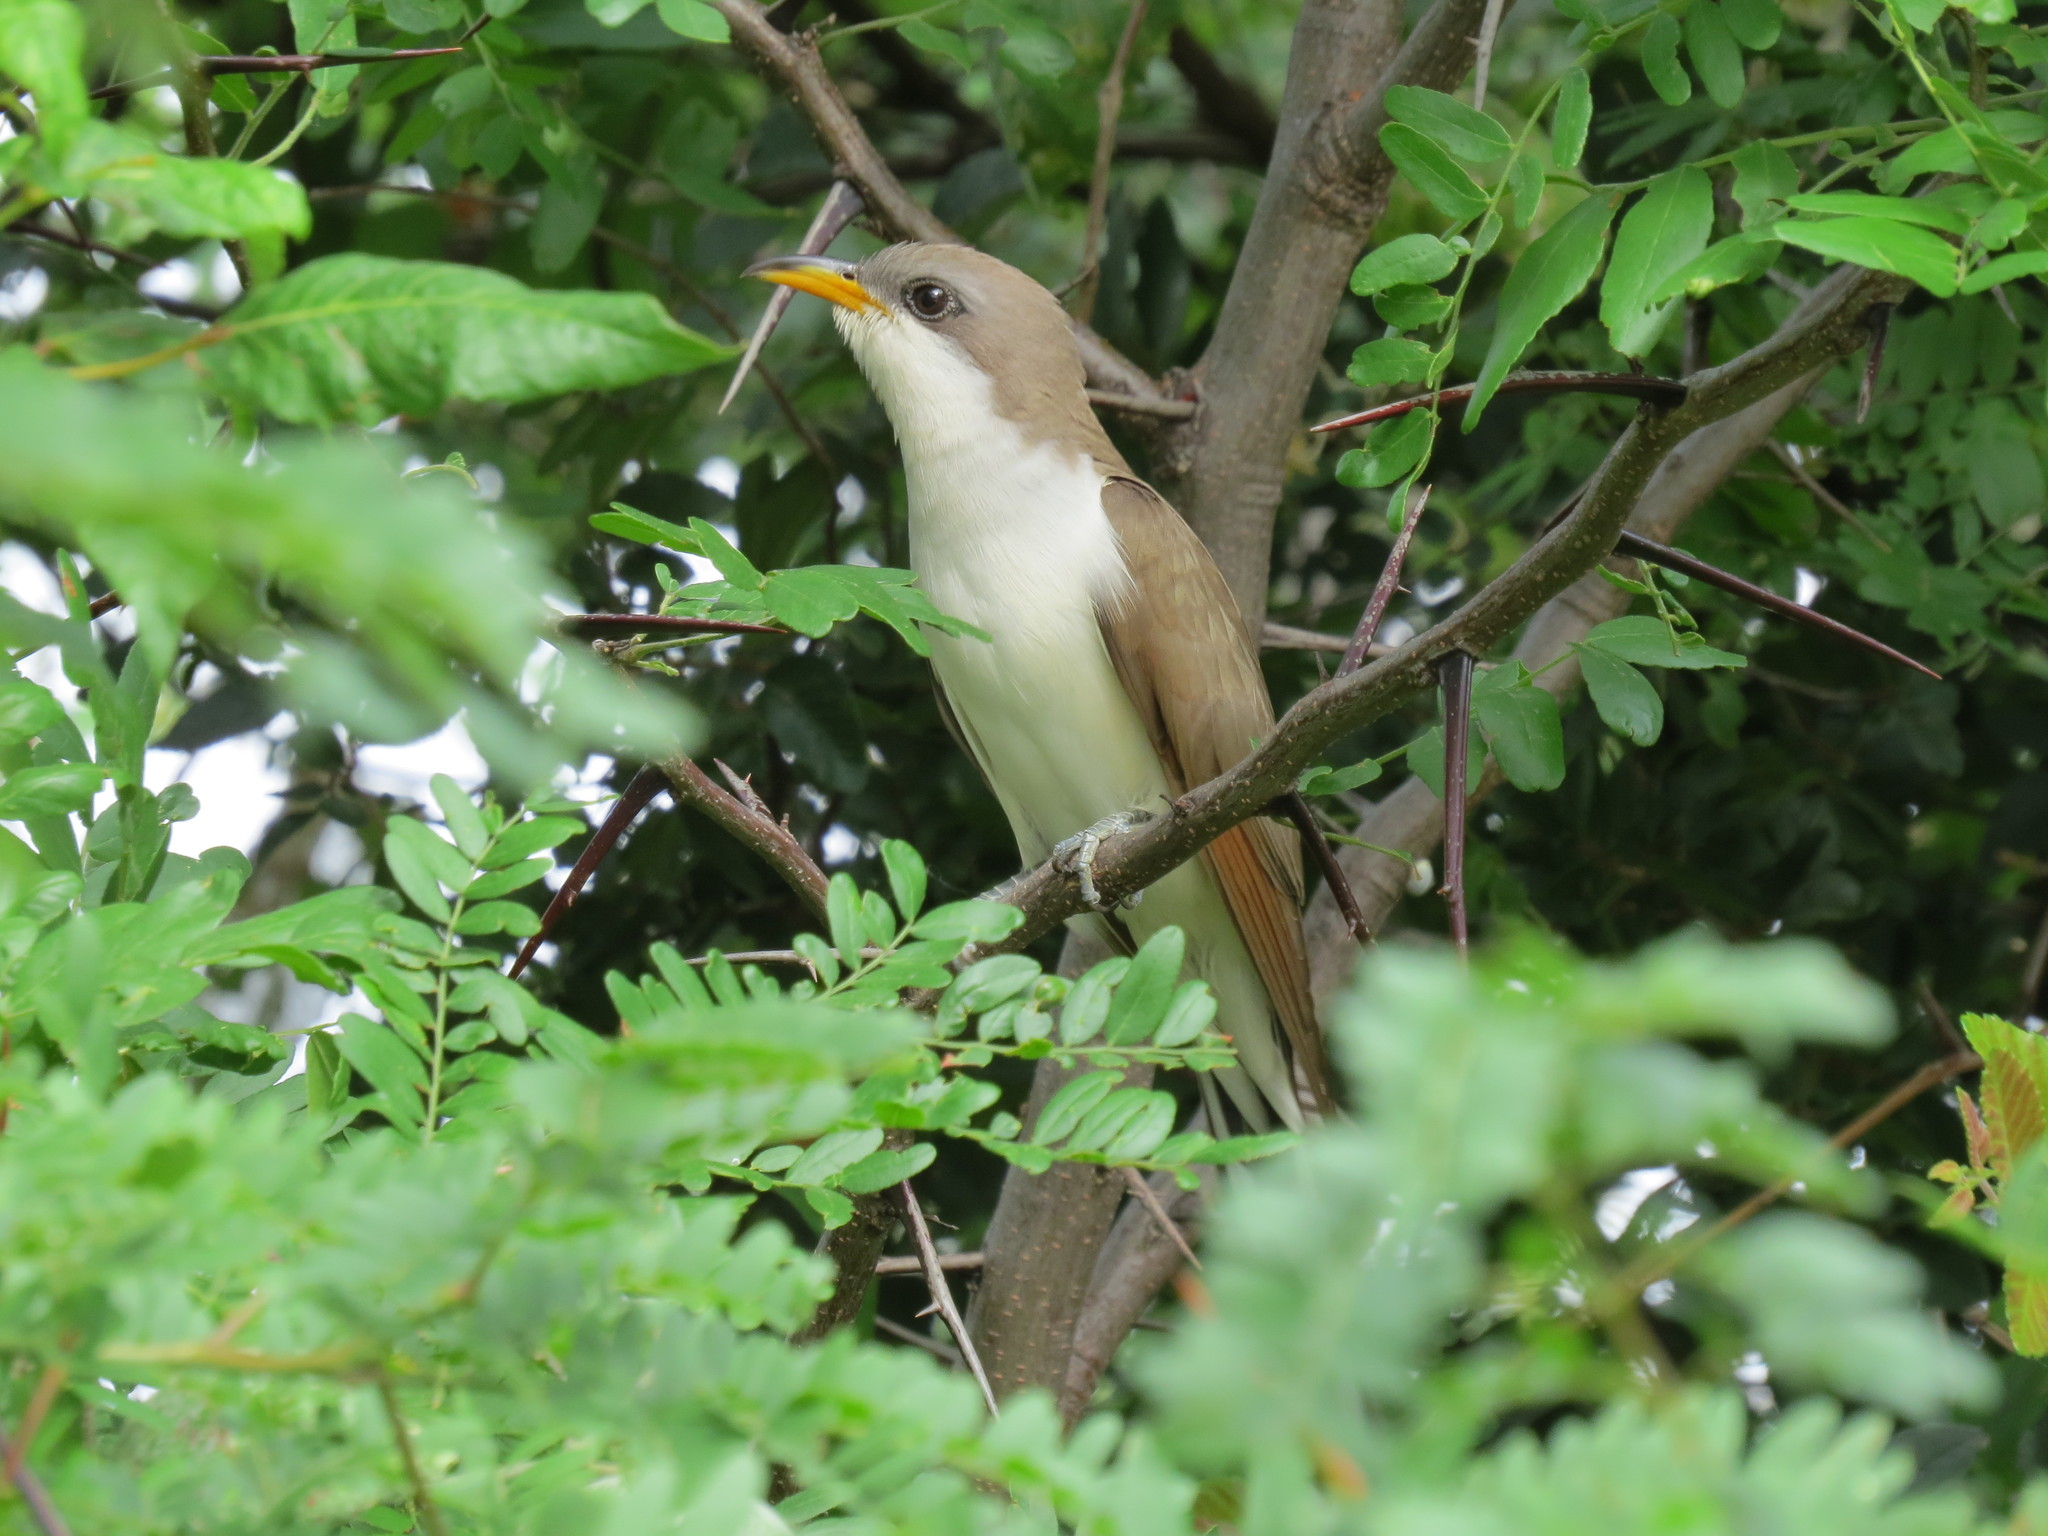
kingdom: Animalia
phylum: Chordata
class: Aves
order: Cuculiformes
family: Cuculidae
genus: Coccyzus
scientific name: Coccyzus americanus
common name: Yellow-billed cuckoo
